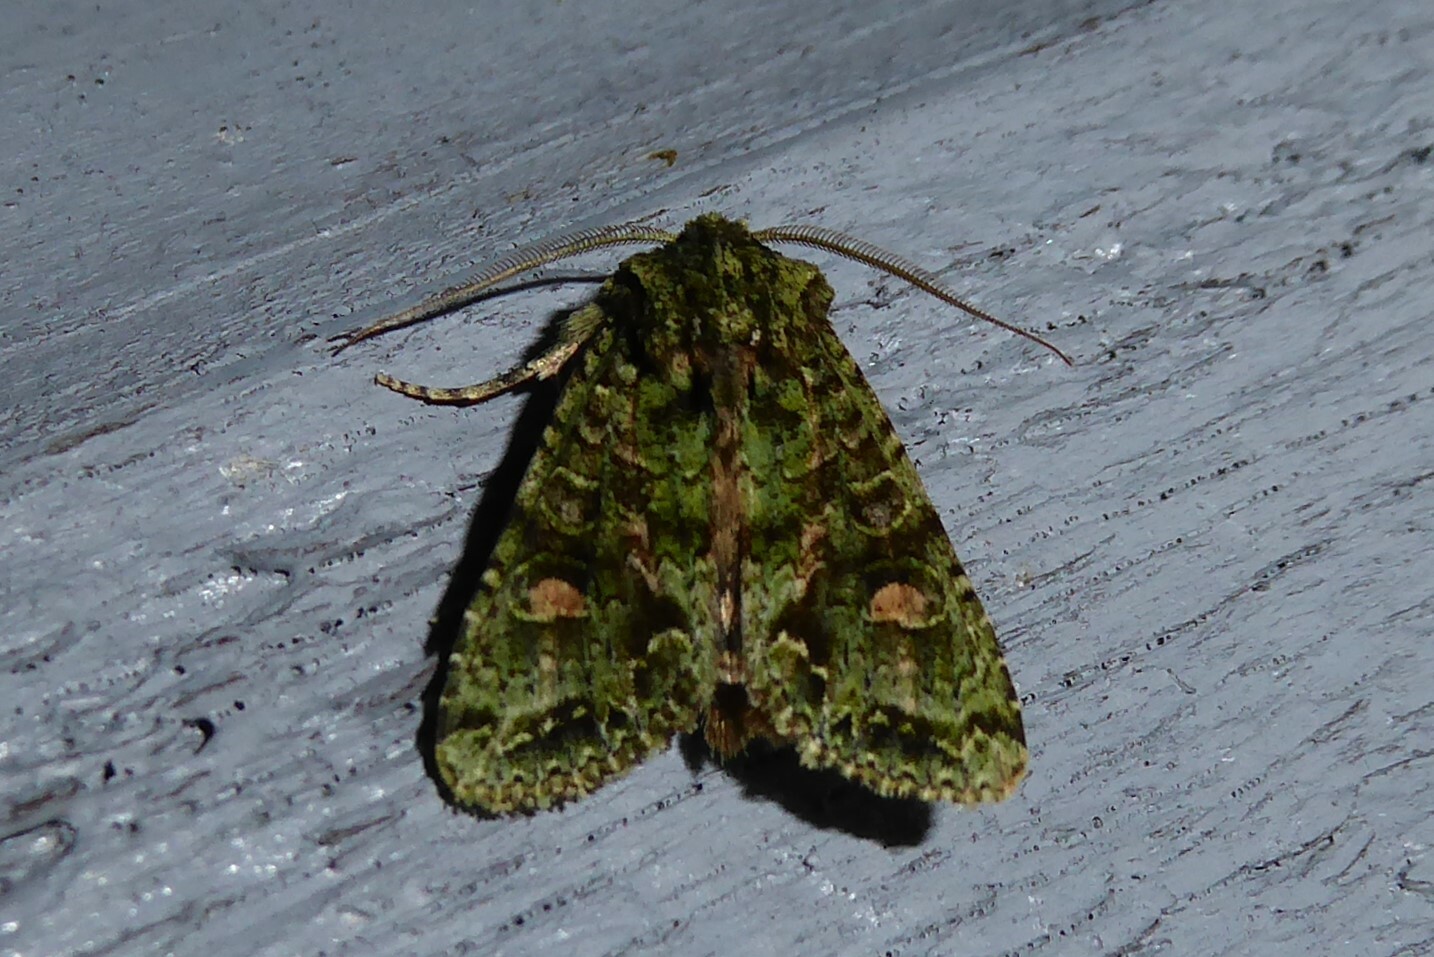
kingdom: Animalia
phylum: Arthropoda
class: Insecta
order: Lepidoptera
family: Noctuidae
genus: Ichneutica
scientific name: Ichneutica
